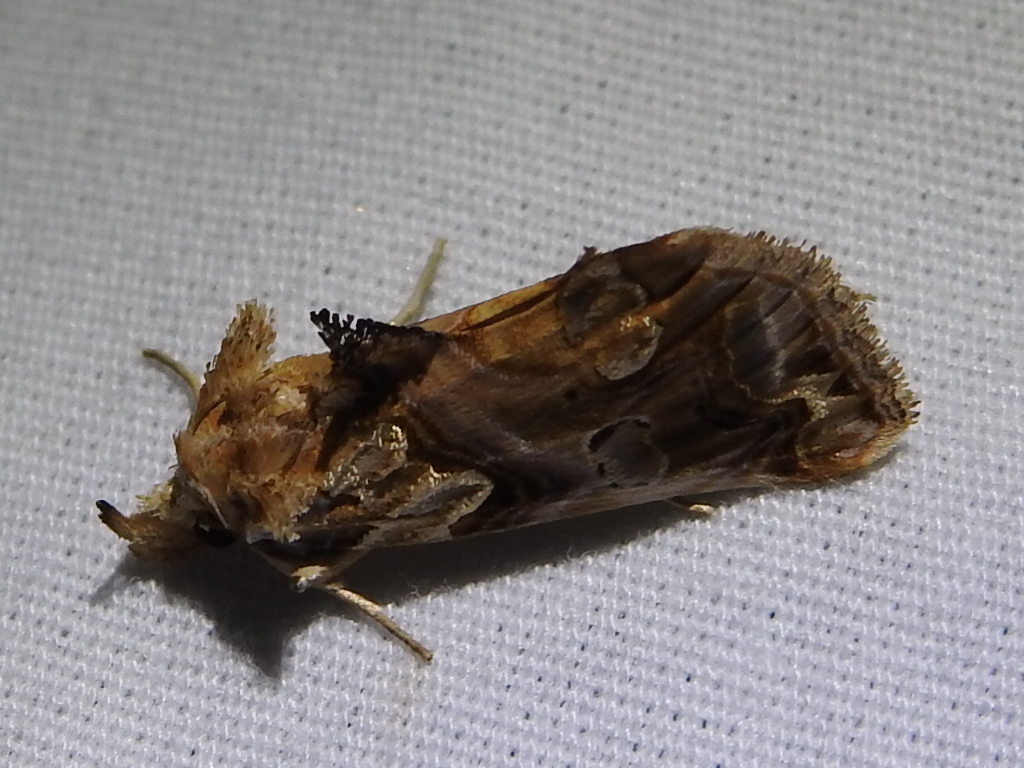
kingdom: Animalia
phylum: Arthropoda
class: Insecta
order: Lepidoptera
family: Erebidae
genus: Plusiodonta
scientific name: Plusiodonta compressipalpis
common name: Moonseed moth
